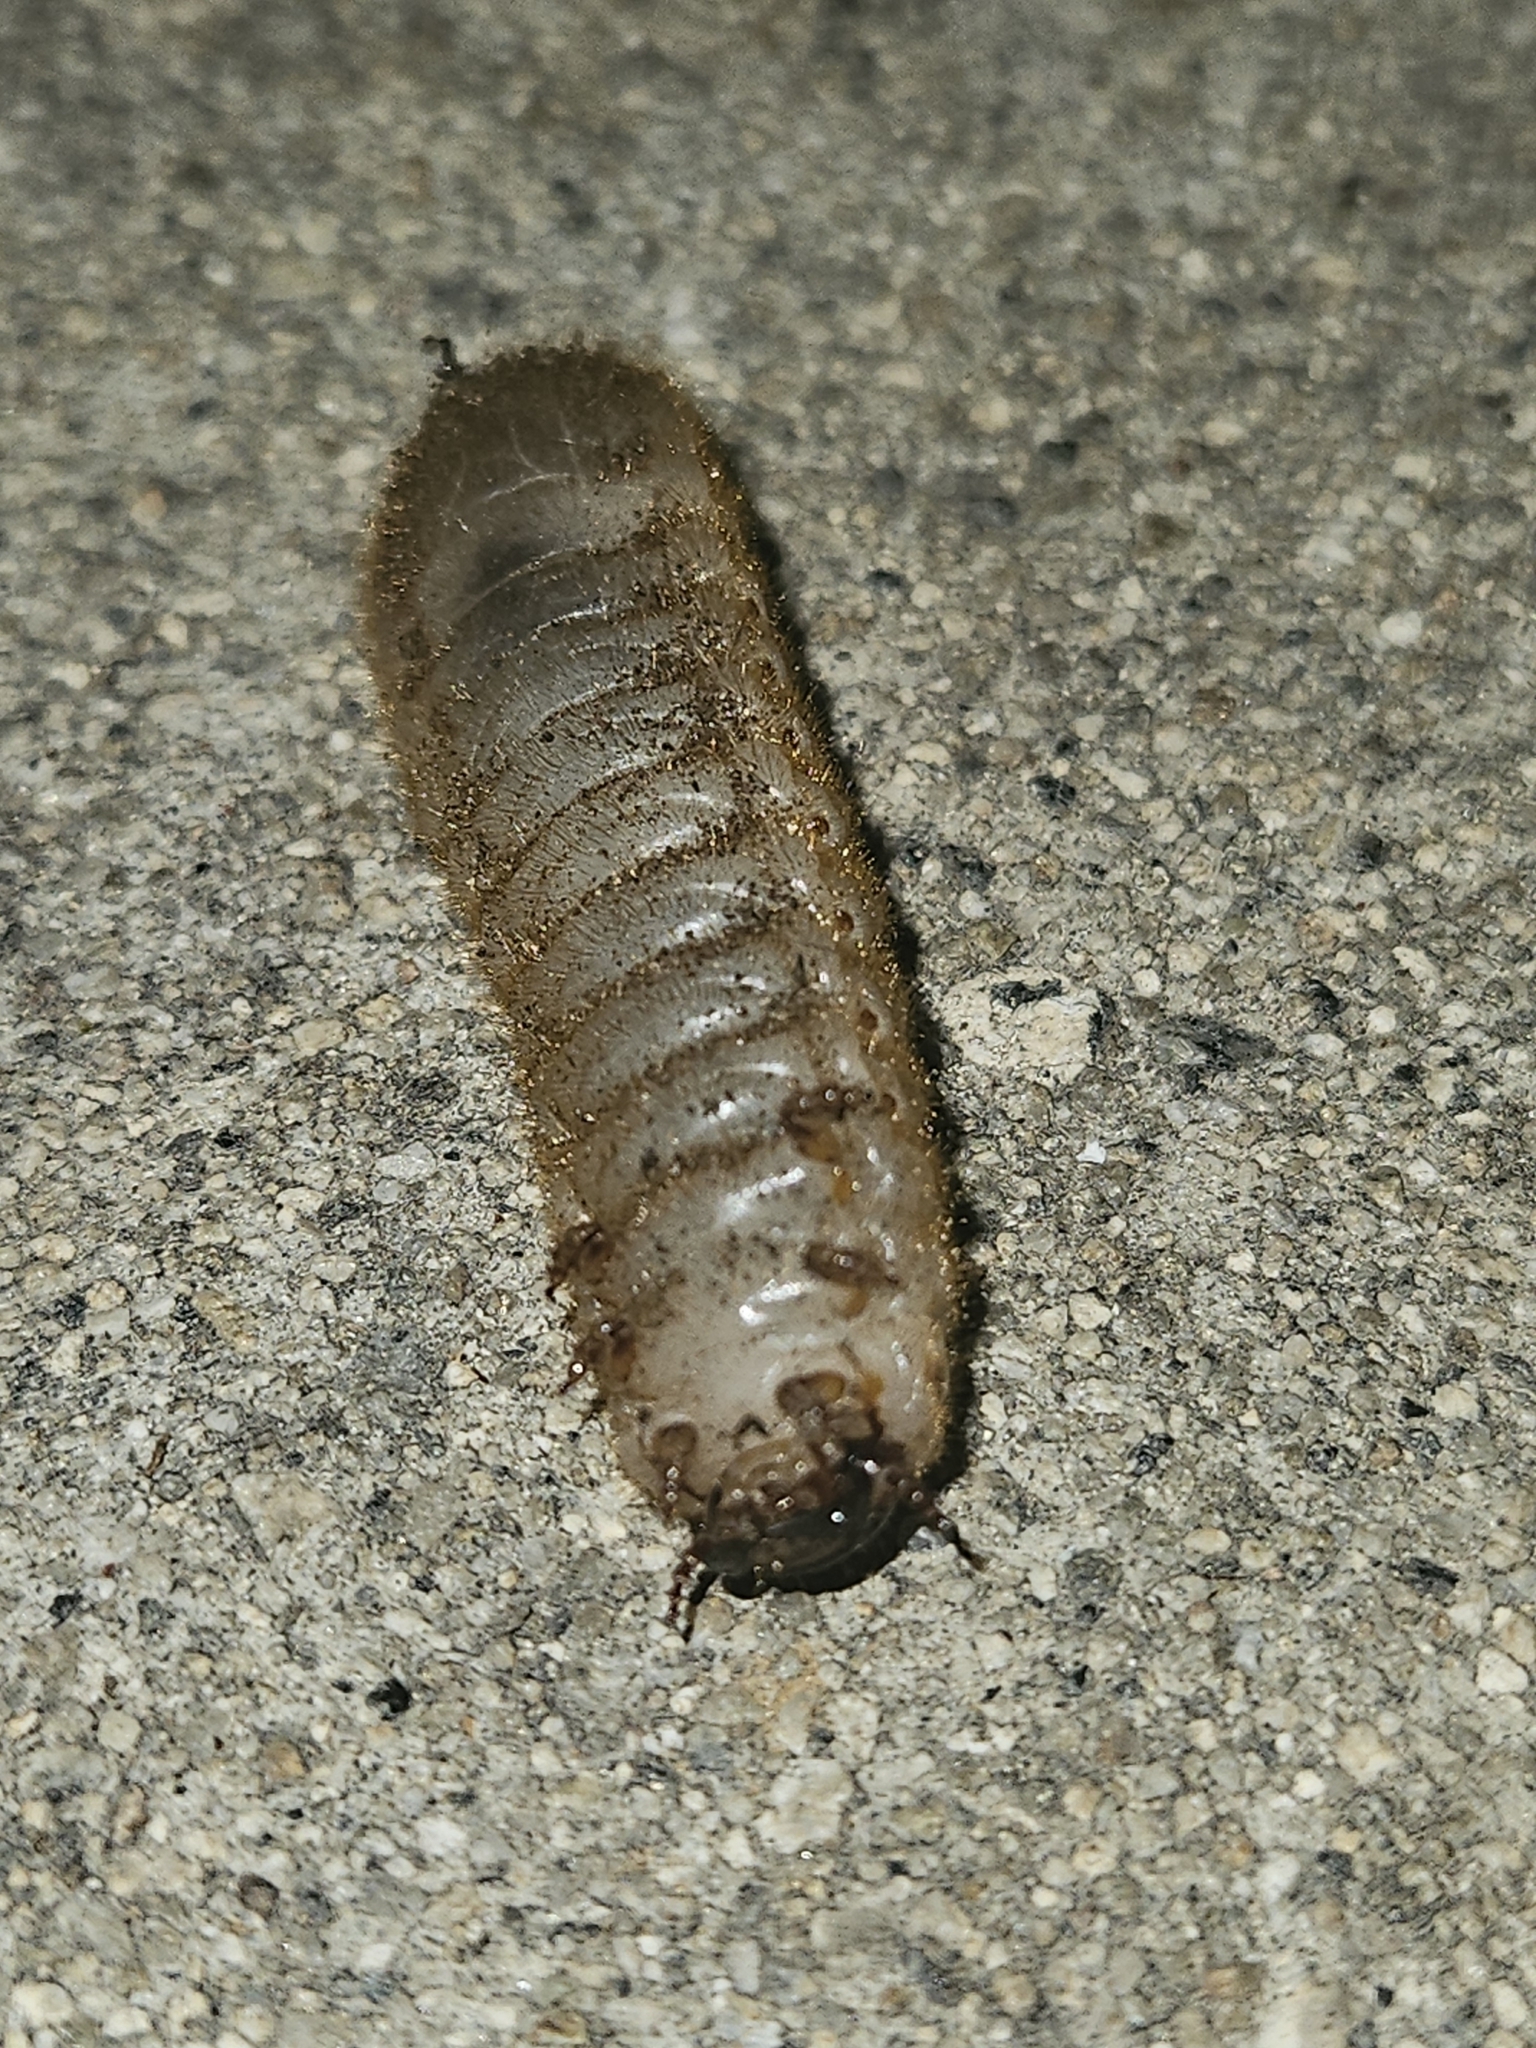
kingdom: Animalia
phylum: Arthropoda
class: Insecta
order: Coleoptera
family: Scarabaeidae
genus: Cotinis
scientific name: Cotinis mutabilis
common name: Figeater beetle
